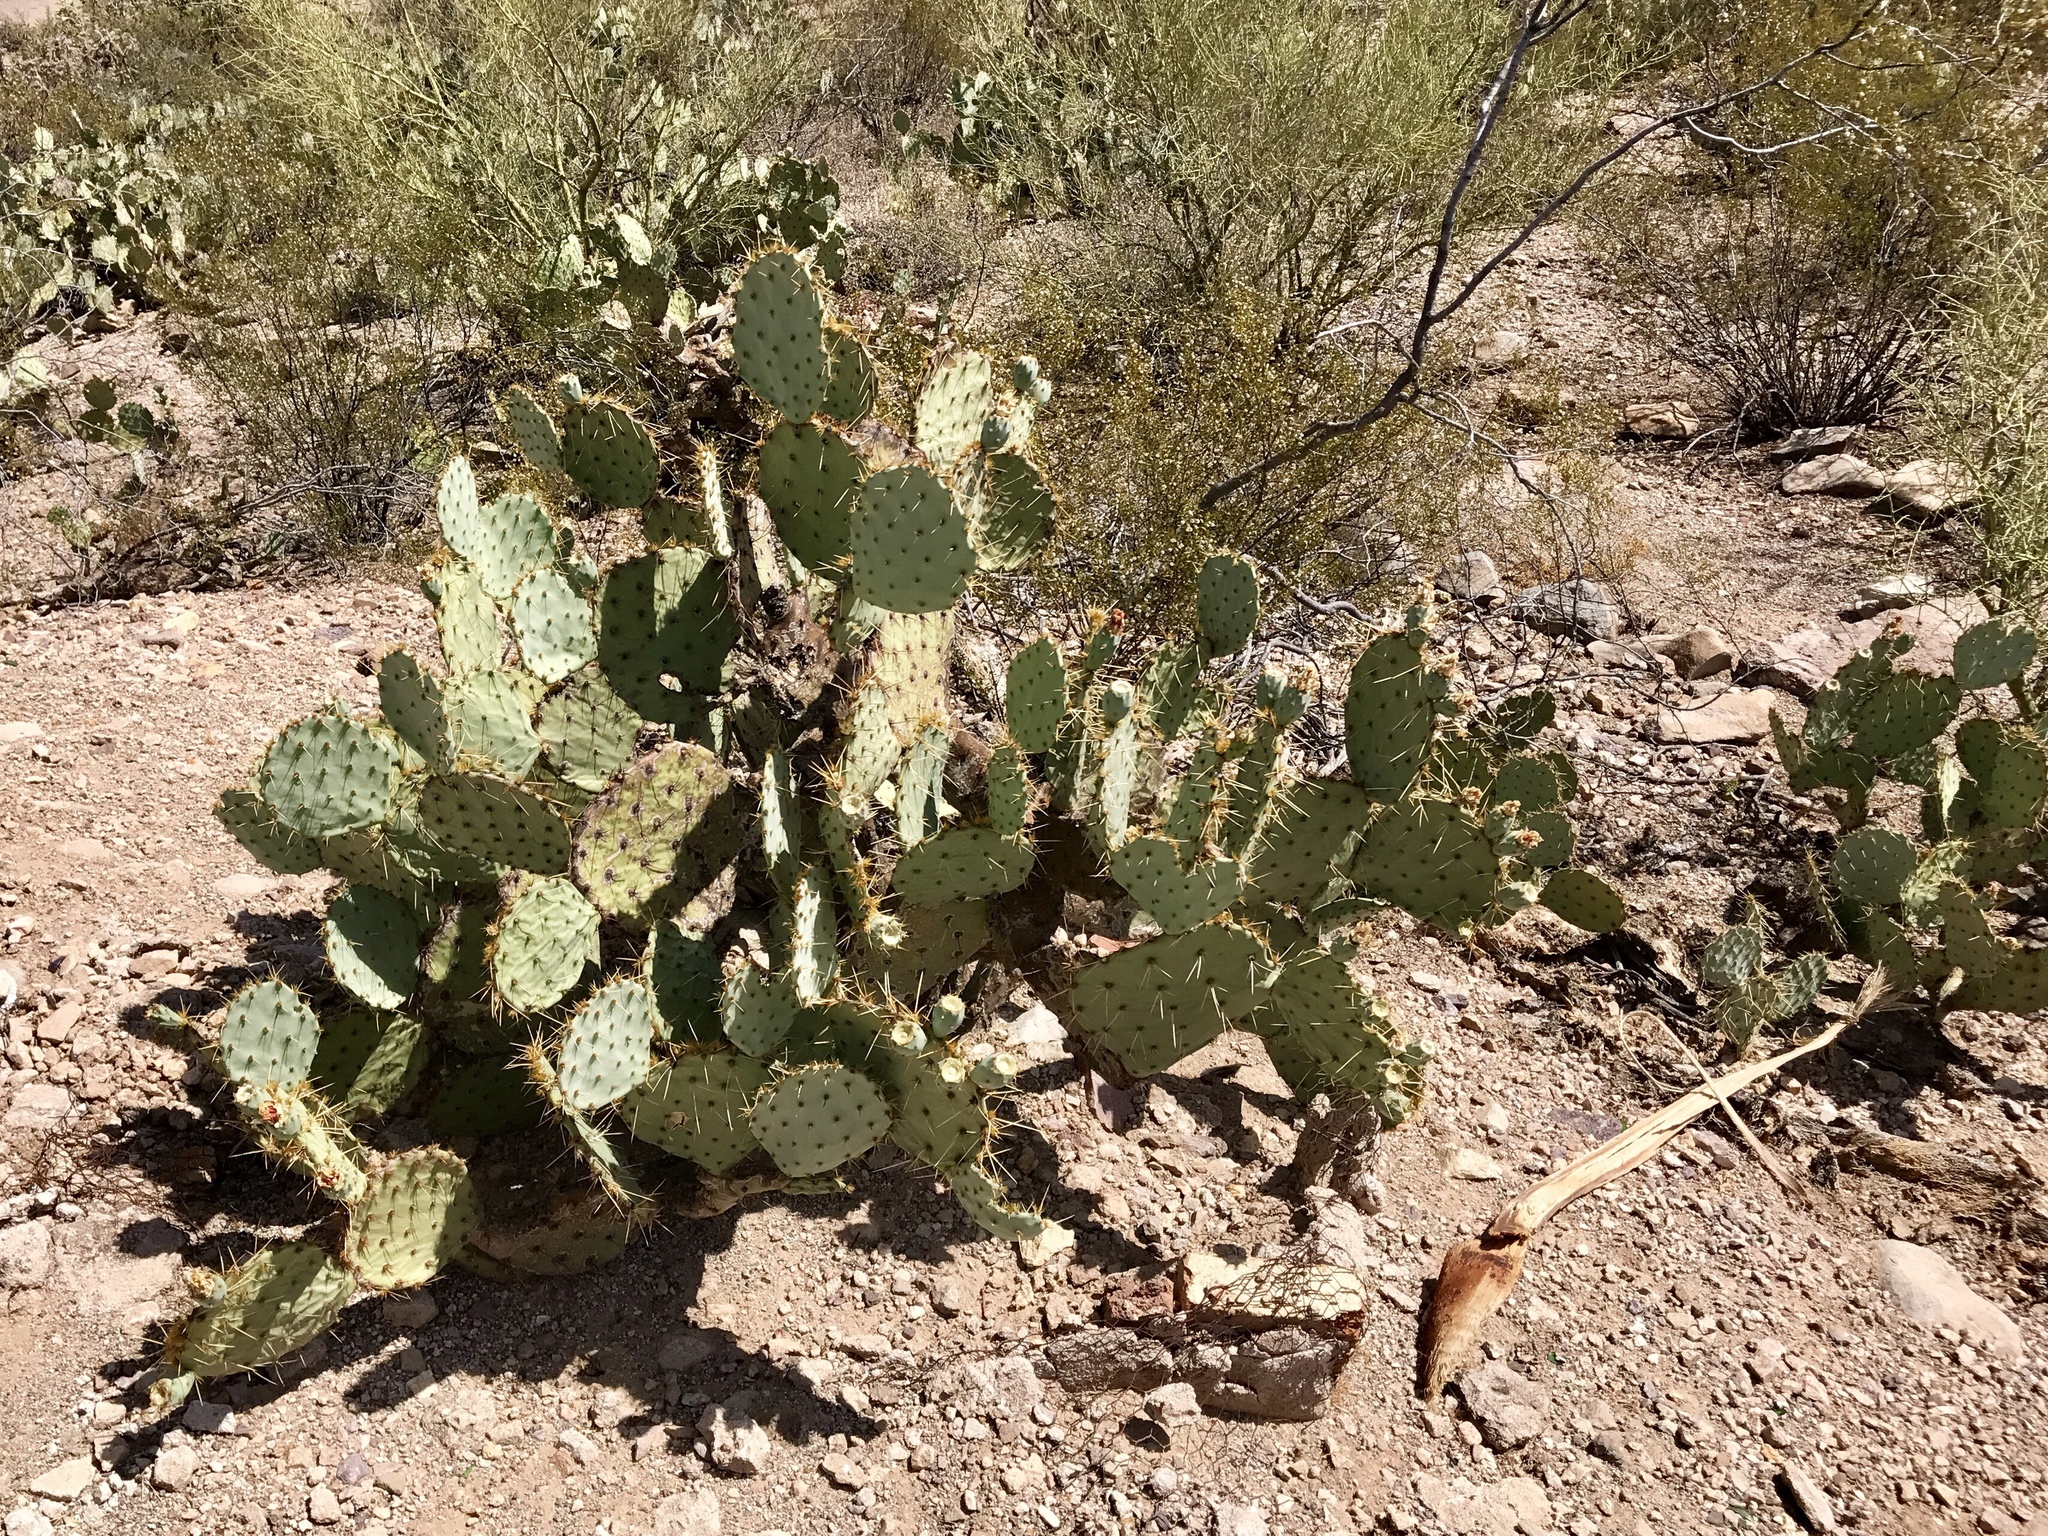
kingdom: Plantae
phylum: Tracheophyta
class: Magnoliopsida
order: Caryophyllales
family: Cactaceae
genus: Opuntia
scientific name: Opuntia engelmannii
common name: Cactus-apple
